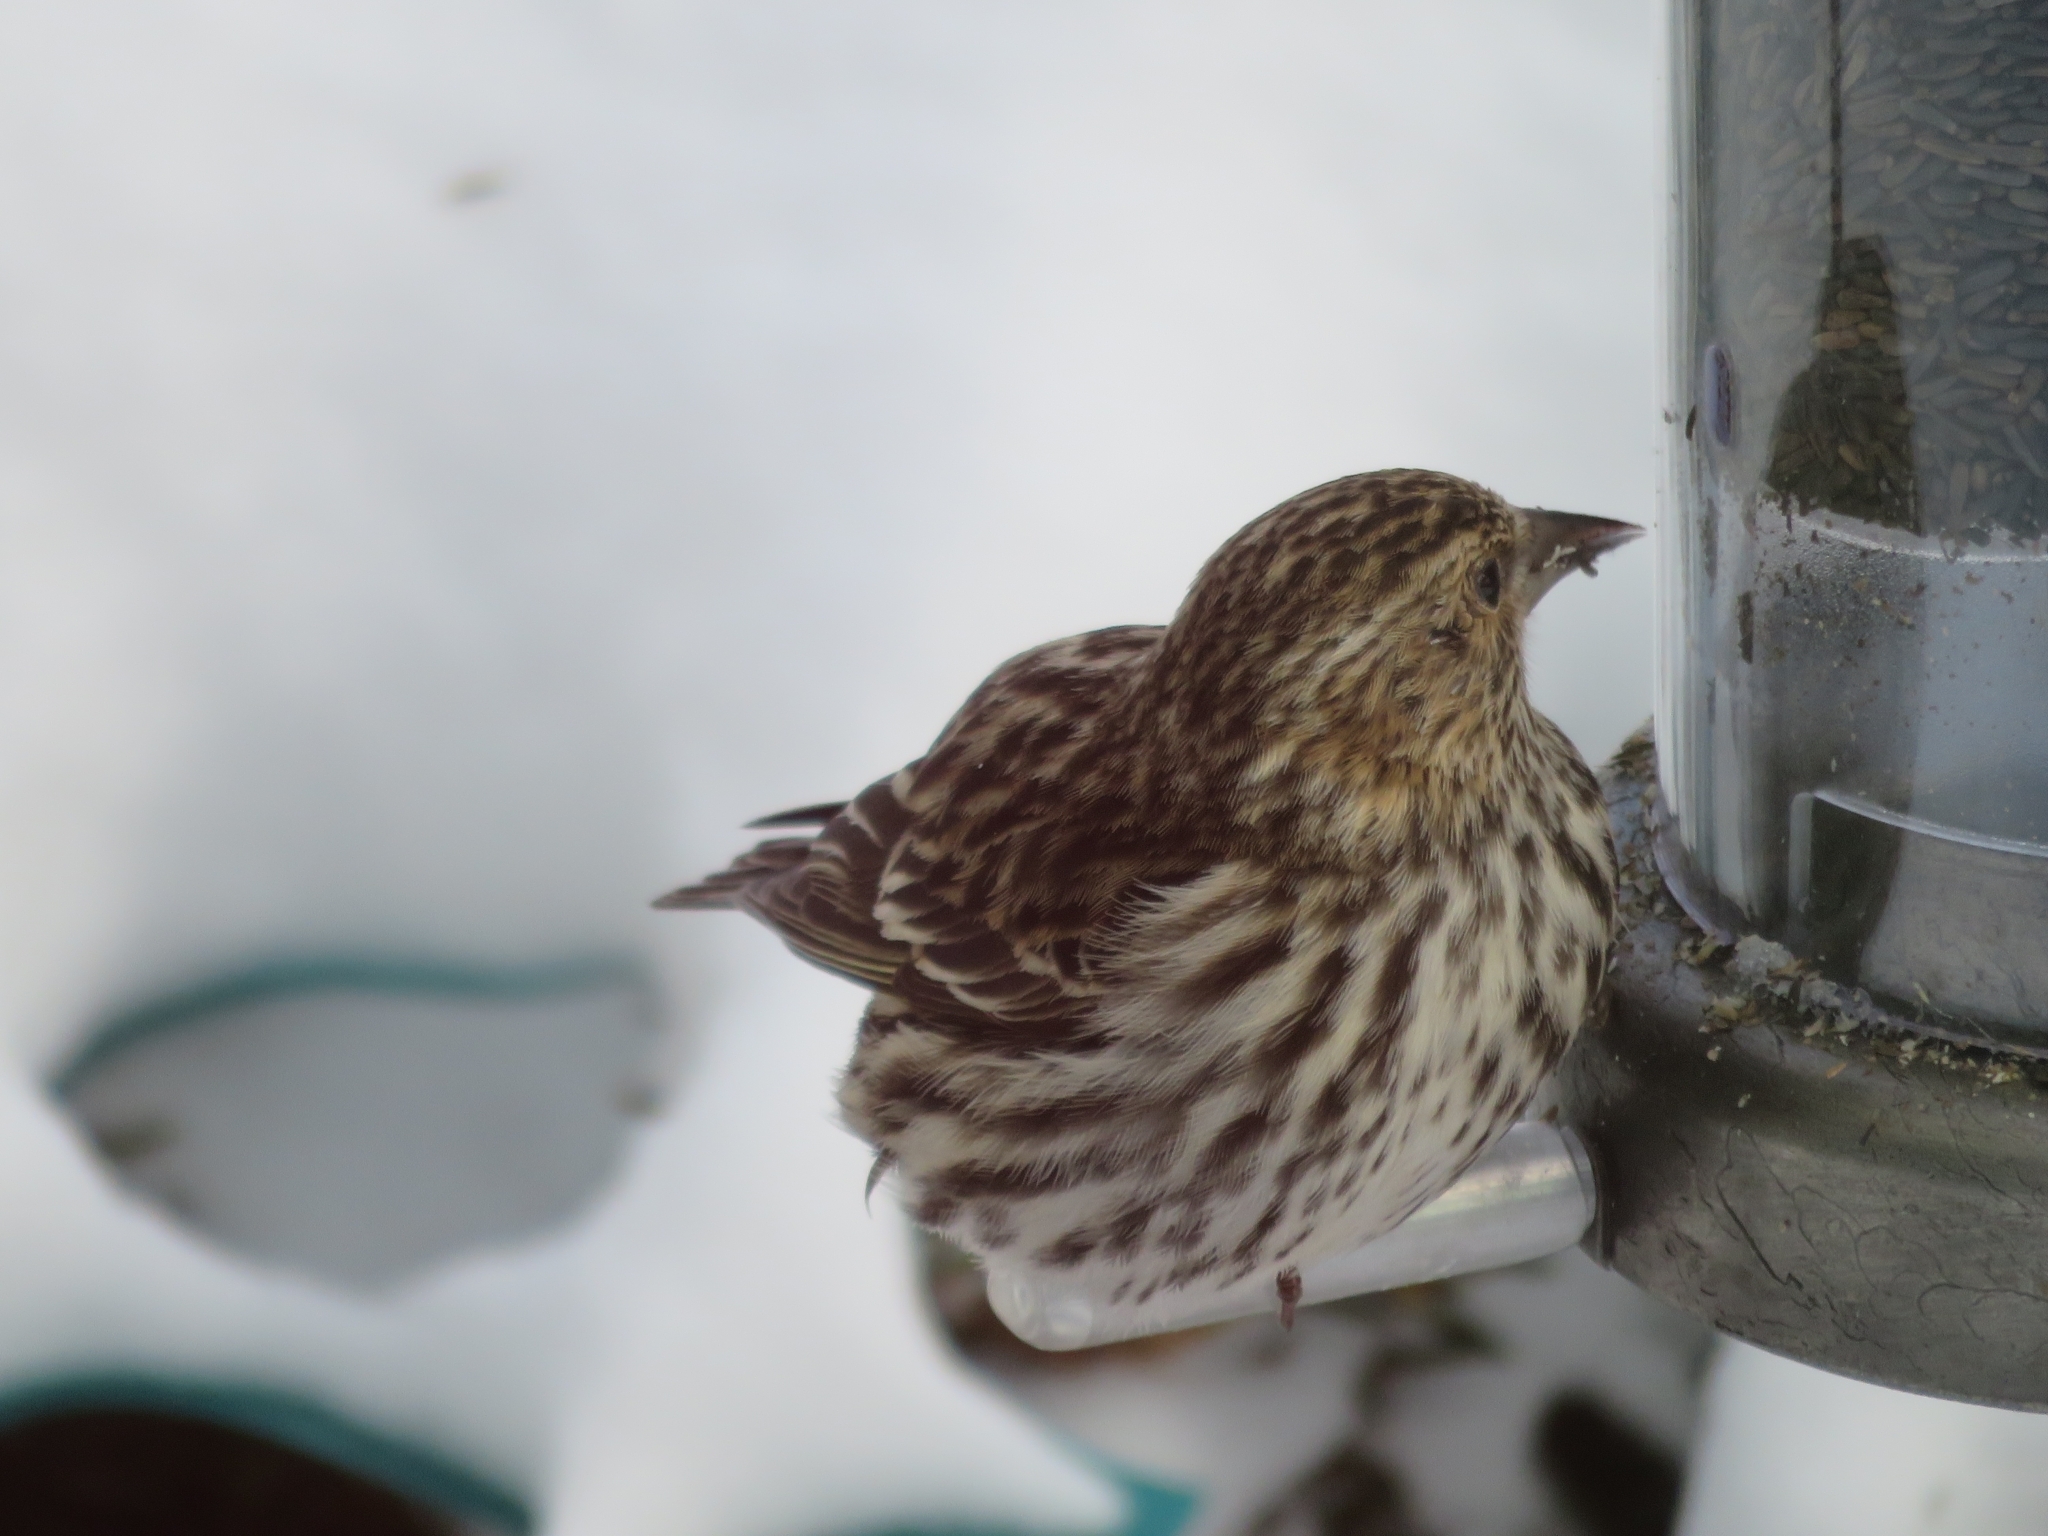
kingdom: Animalia
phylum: Chordata
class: Aves
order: Passeriformes
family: Fringillidae
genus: Spinus
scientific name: Spinus pinus
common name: Pine siskin
